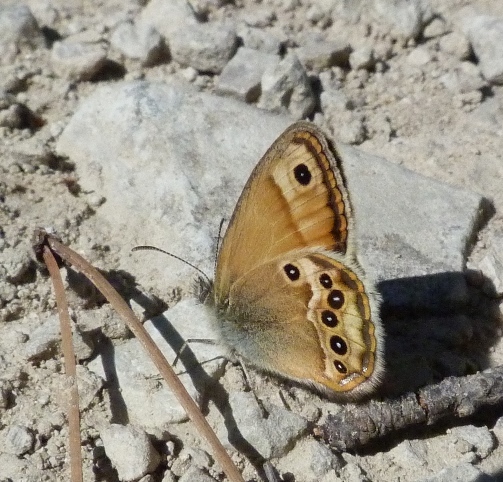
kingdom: Animalia
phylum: Arthropoda
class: Insecta
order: Lepidoptera
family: Nymphalidae
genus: Coenonympha
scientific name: Coenonympha dorus
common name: Dusky heath
